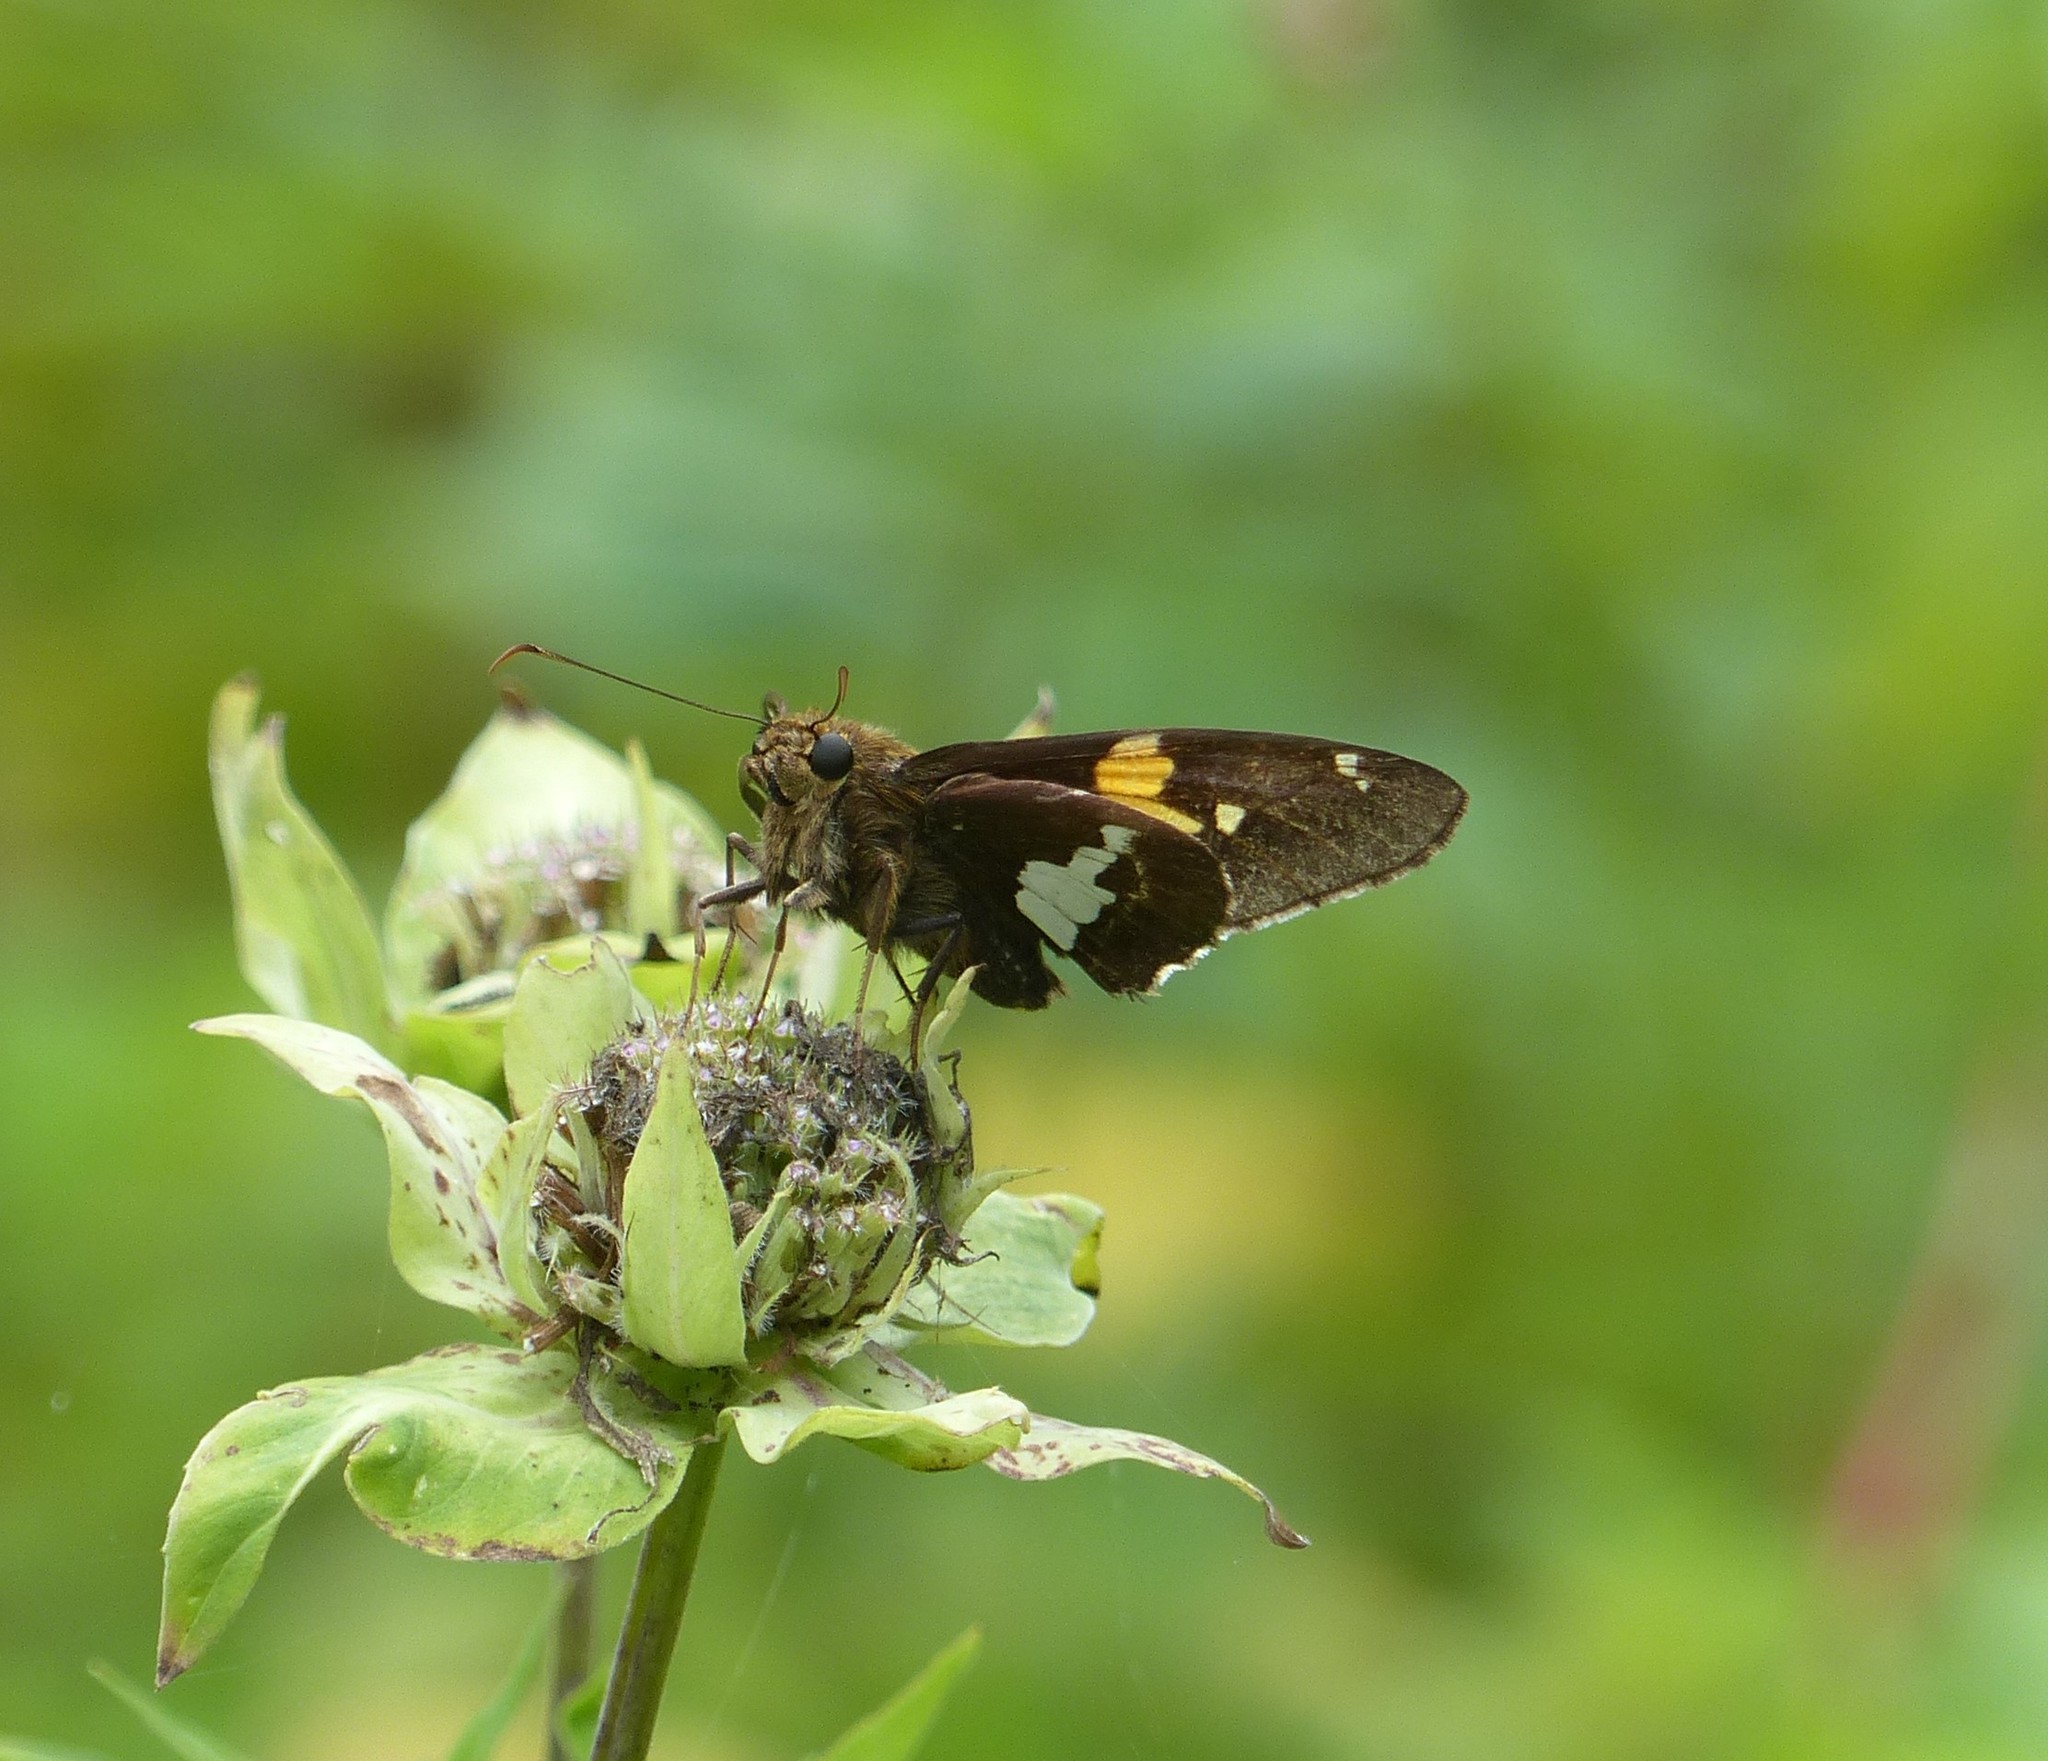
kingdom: Animalia
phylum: Arthropoda
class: Insecta
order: Lepidoptera
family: Hesperiidae
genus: Epargyreus
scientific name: Epargyreus clarus
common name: Silver-spotted skipper
